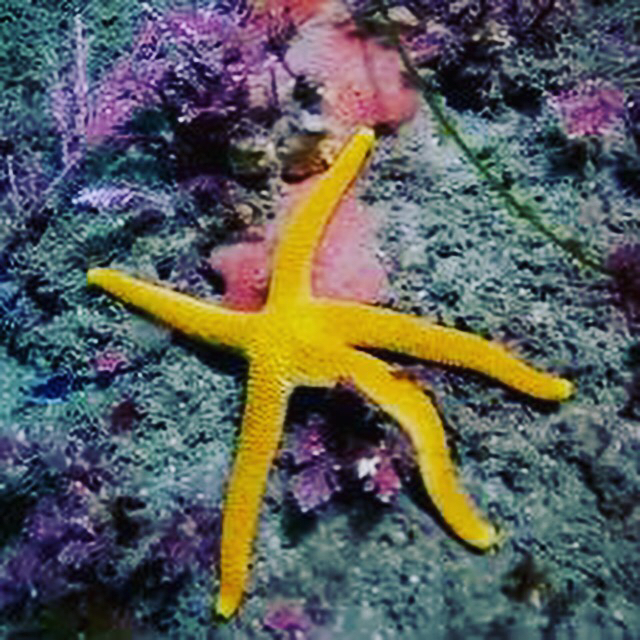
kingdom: Animalia
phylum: Echinodermata
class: Asteroidea
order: Spinulosida
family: Echinasteridae
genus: Henricia
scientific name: Henricia leviuscula
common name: Pacific blood star
